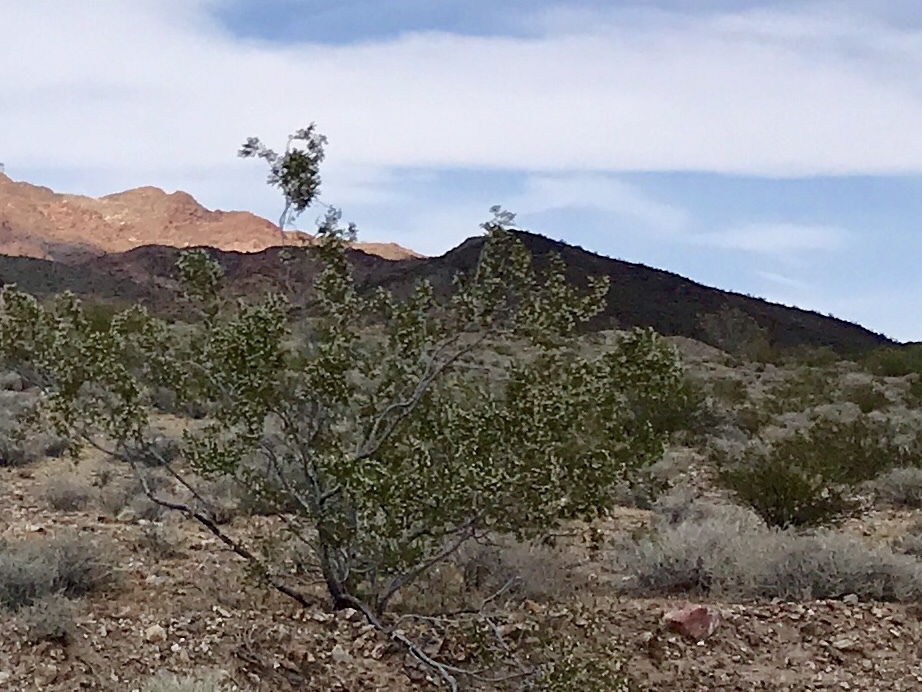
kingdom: Plantae
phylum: Tracheophyta
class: Magnoliopsida
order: Zygophyllales
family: Zygophyllaceae
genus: Larrea
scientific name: Larrea tridentata
